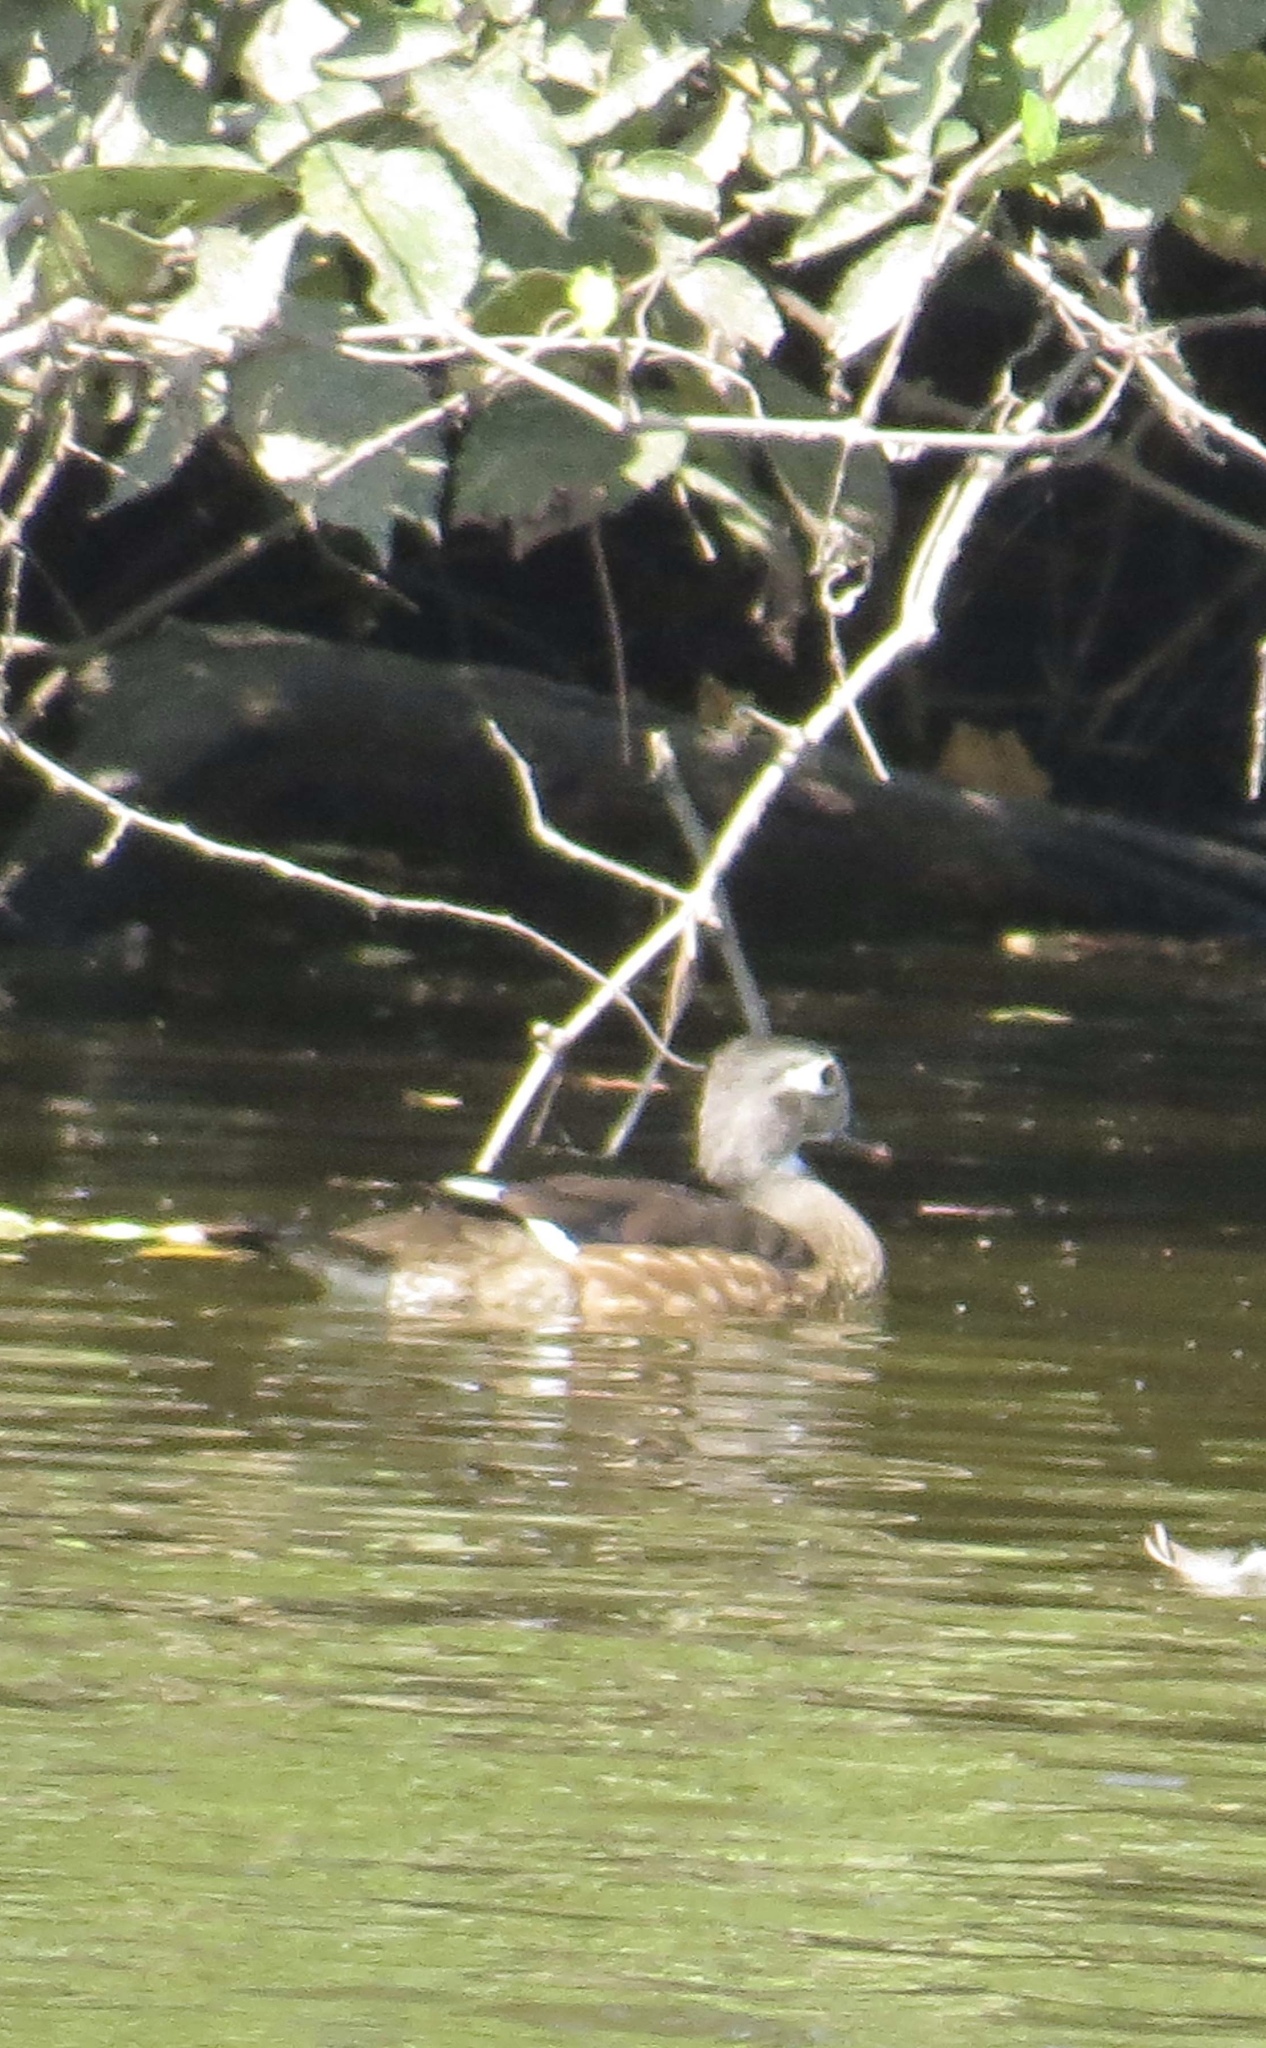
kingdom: Animalia
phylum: Chordata
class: Aves
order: Anseriformes
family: Anatidae
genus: Aix
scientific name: Aix sponsa
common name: Wood duck
